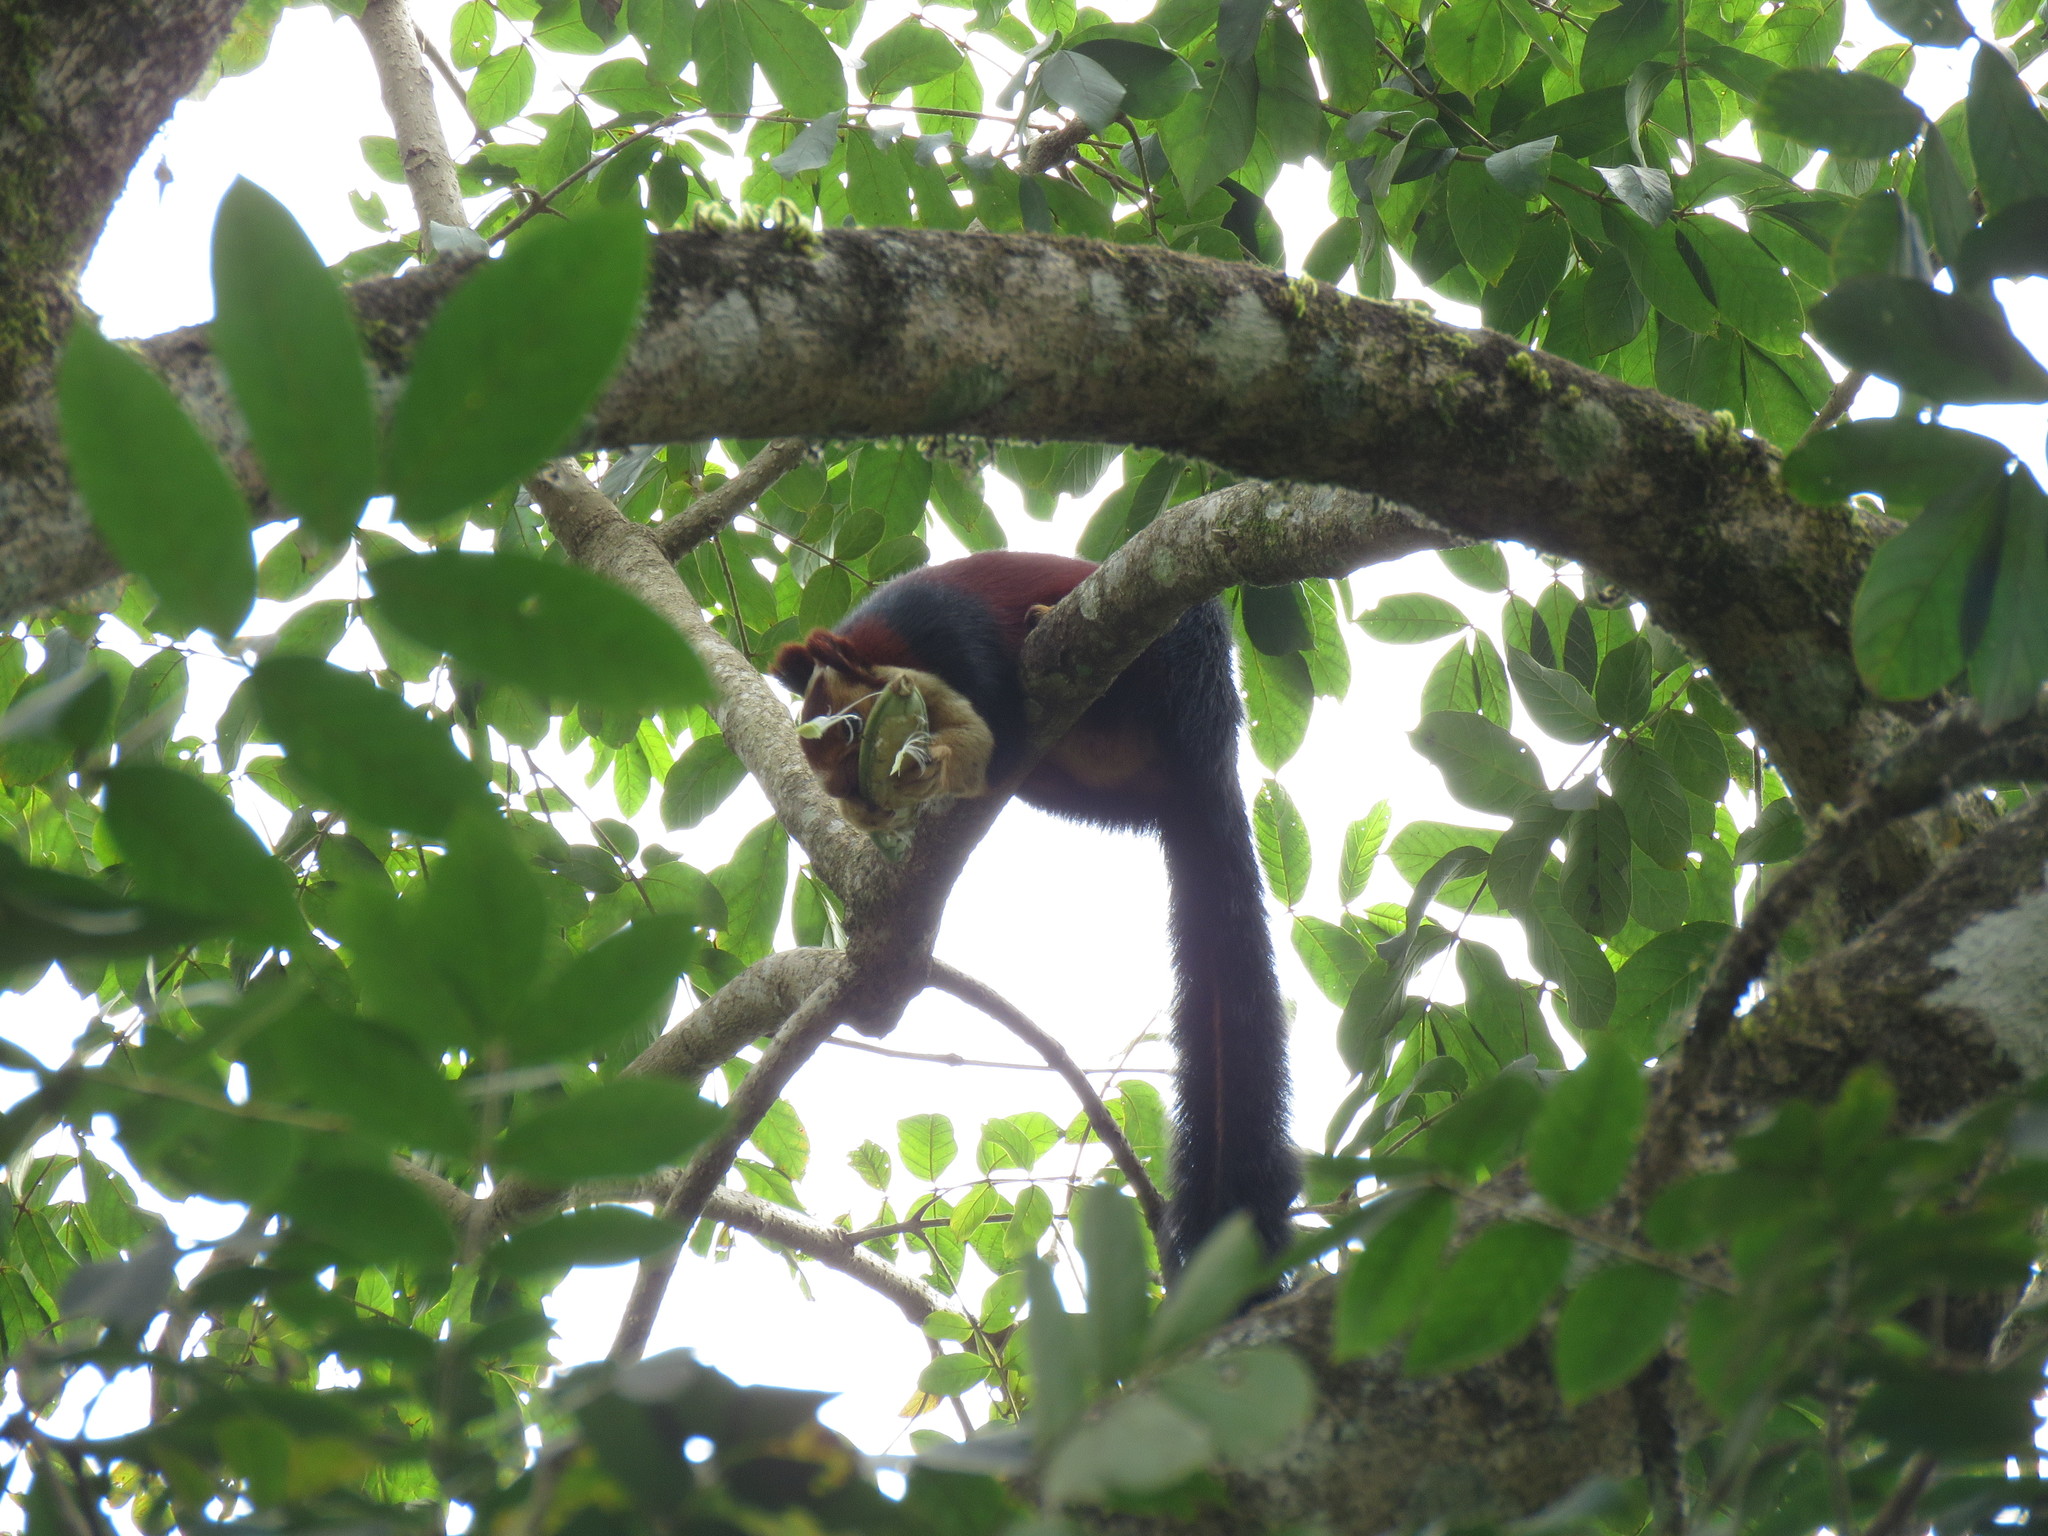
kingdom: Animalia
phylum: Chordata
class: Mammalia
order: Rodentia
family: Sciuridae
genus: Ratufa
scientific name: Ratufa indica
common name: Indian giant squirrel
